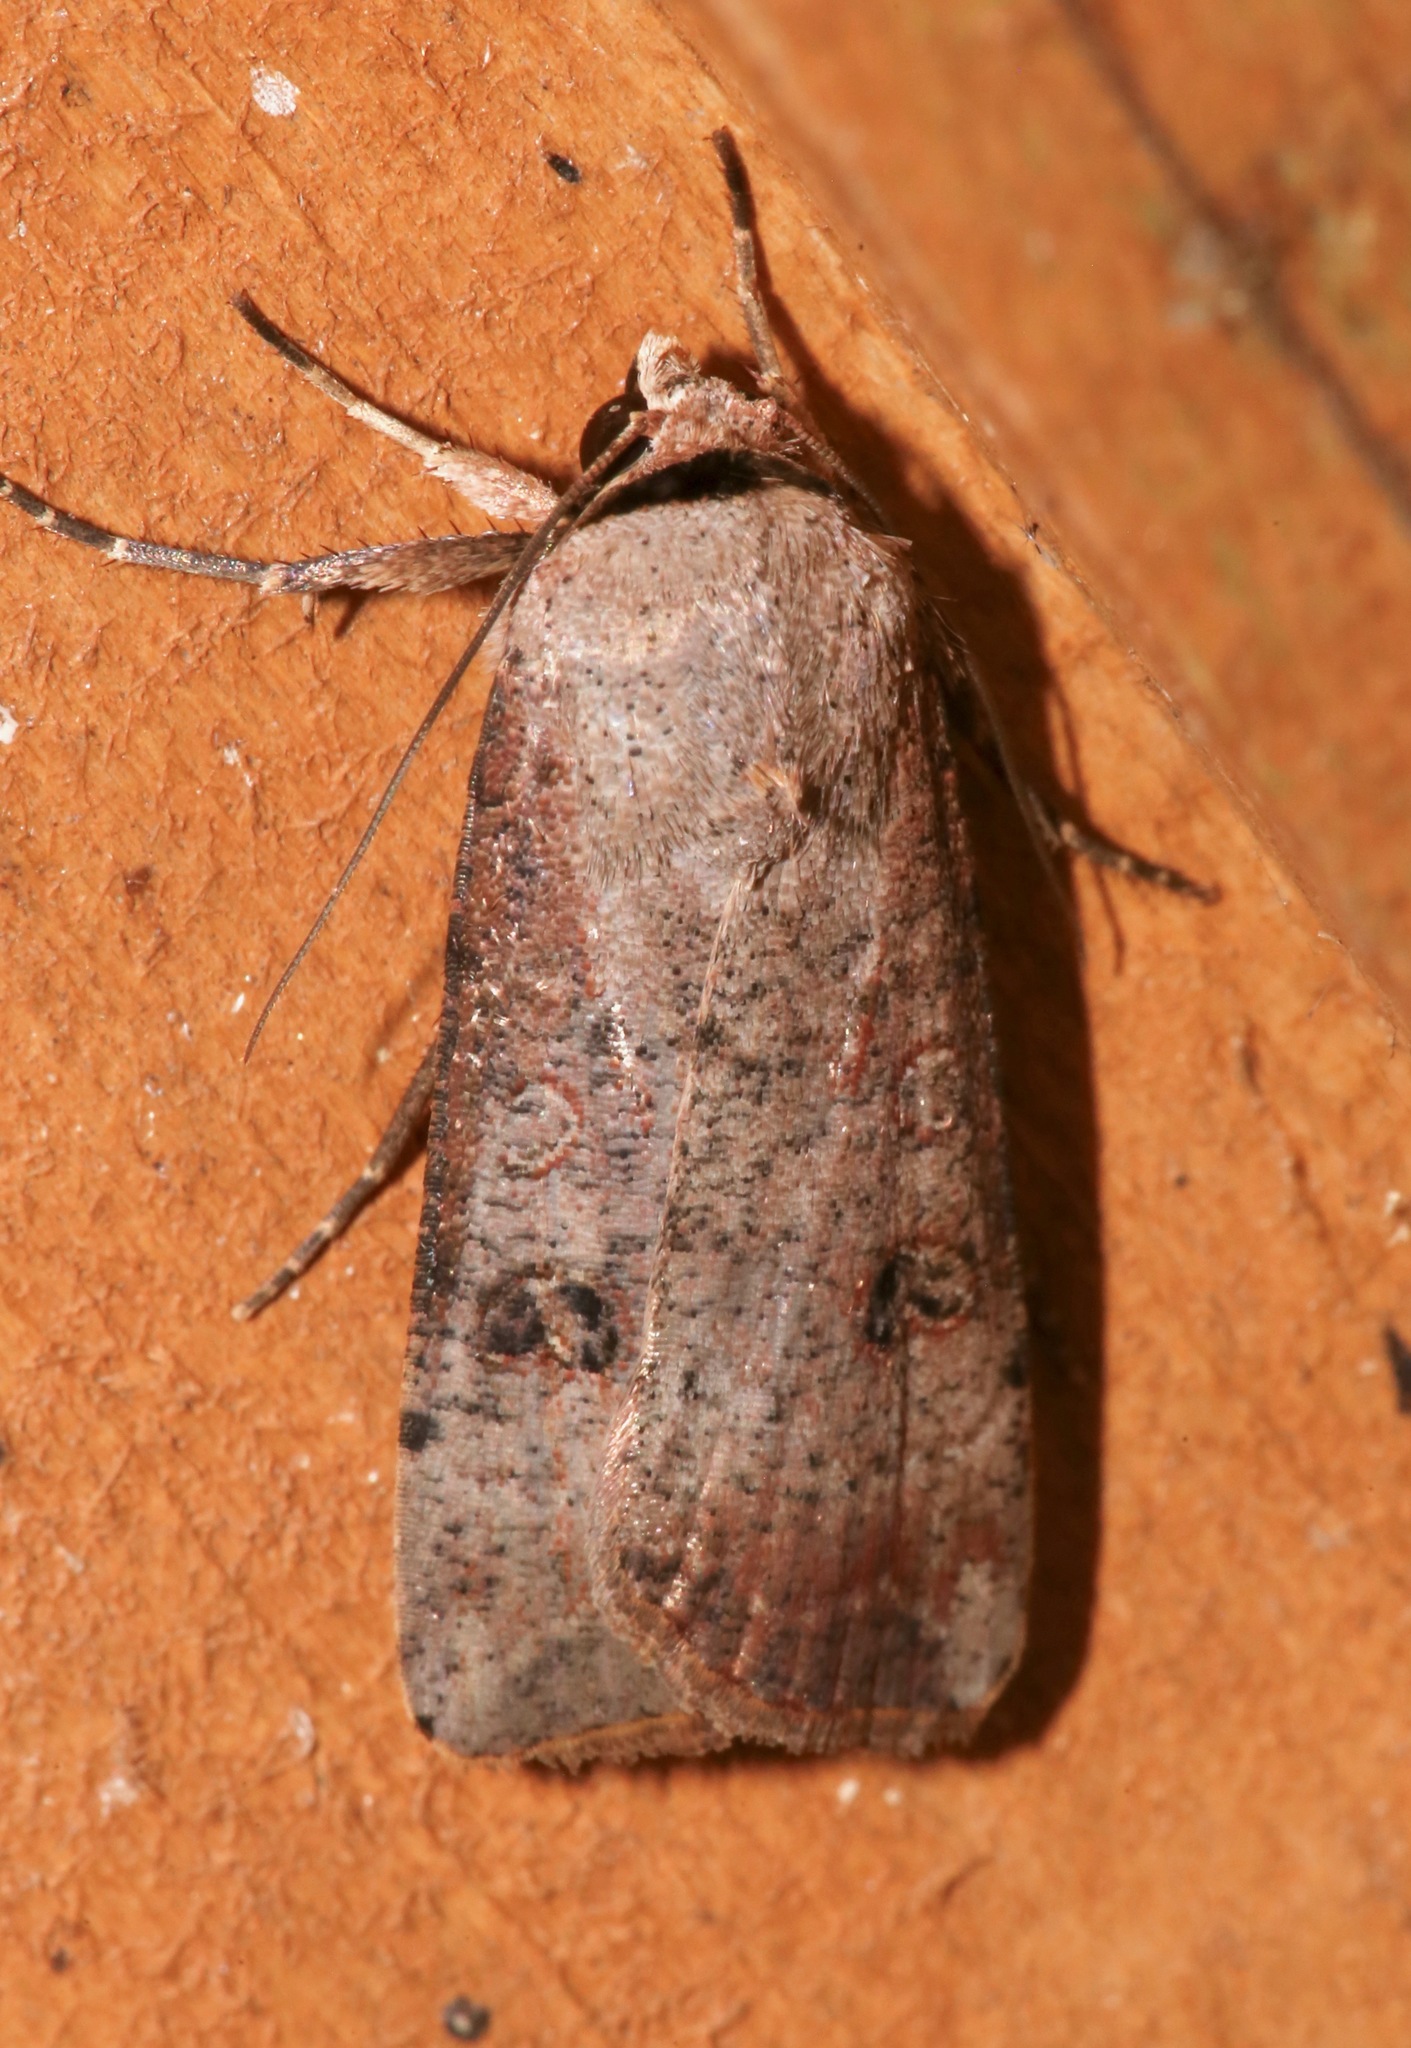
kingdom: Animalia
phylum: Arthropoda
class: Insecta
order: Lepidoptera
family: Noctuidae
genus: Anicla
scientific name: Anicla infecta
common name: Green cutworm
